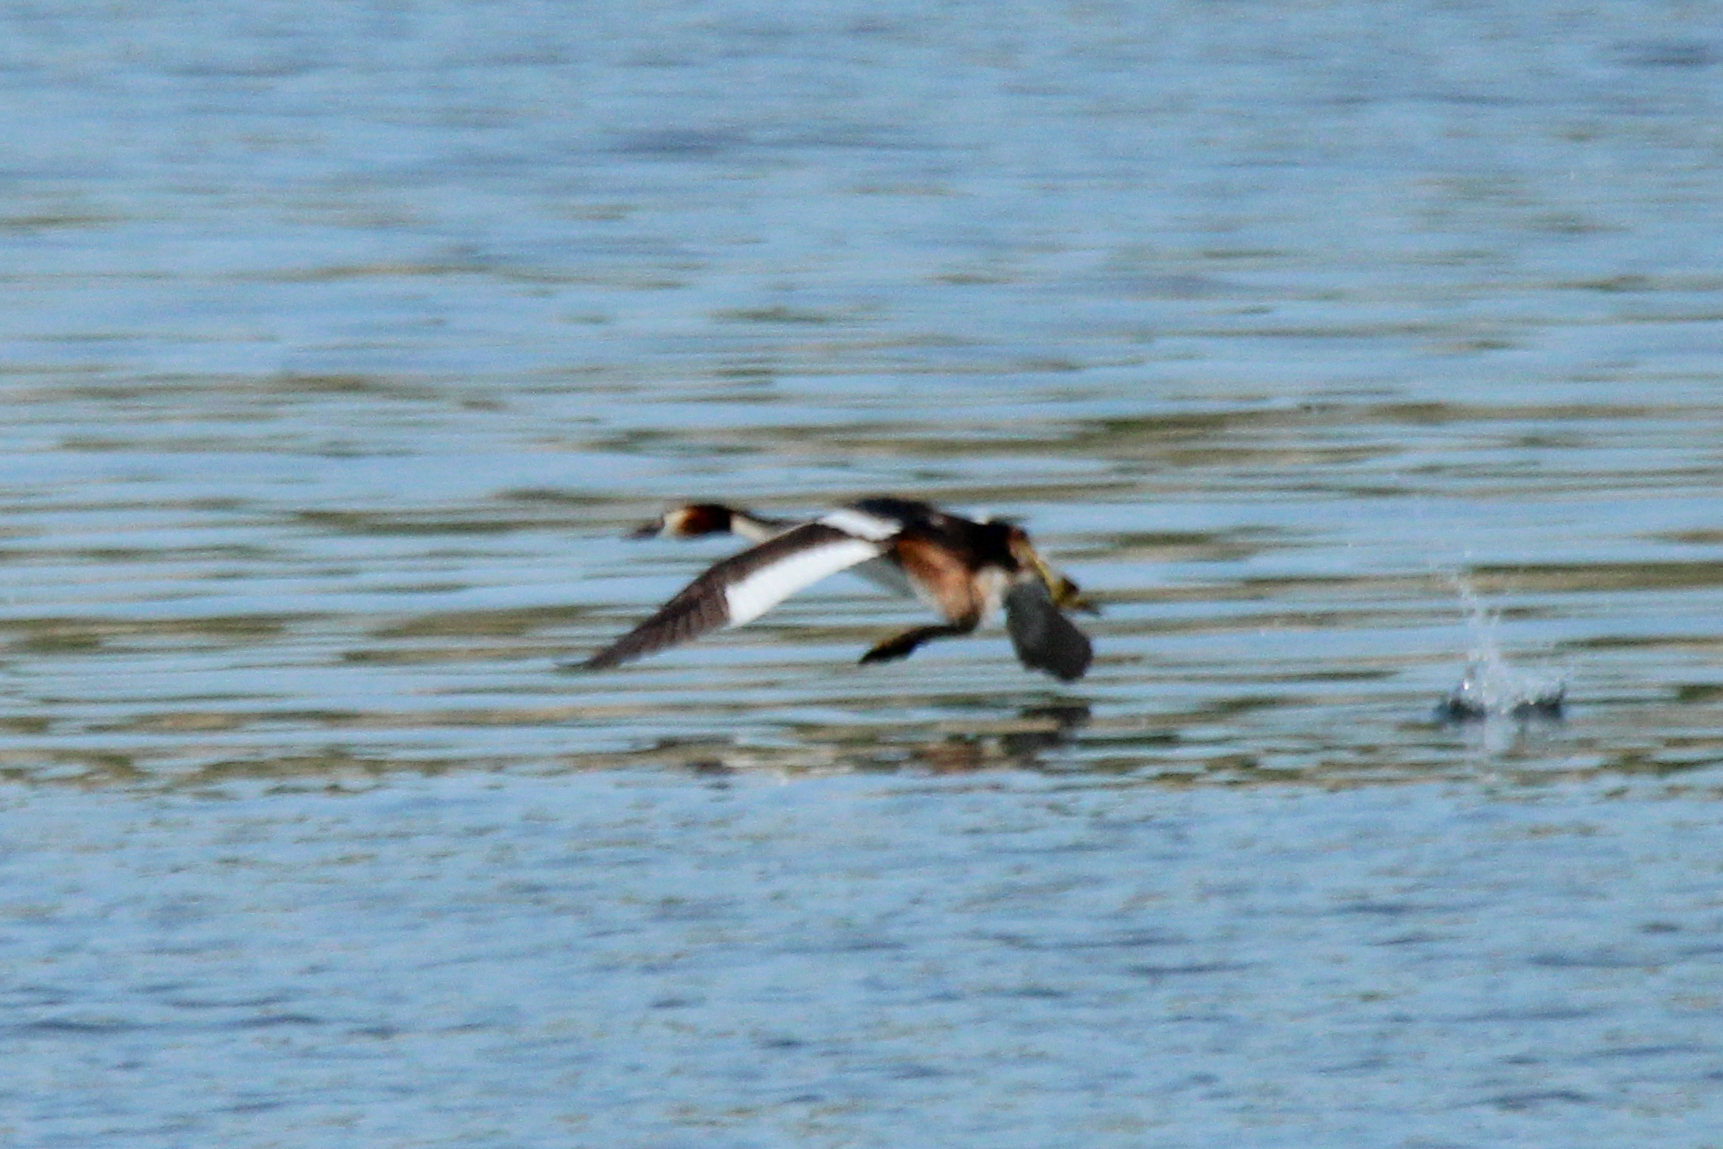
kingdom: Animalia
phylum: Chordata
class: Aves
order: Podicipediformes
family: Podicipedidae
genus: Podiceps
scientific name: Podiceps cristatus
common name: Great crested grebe
